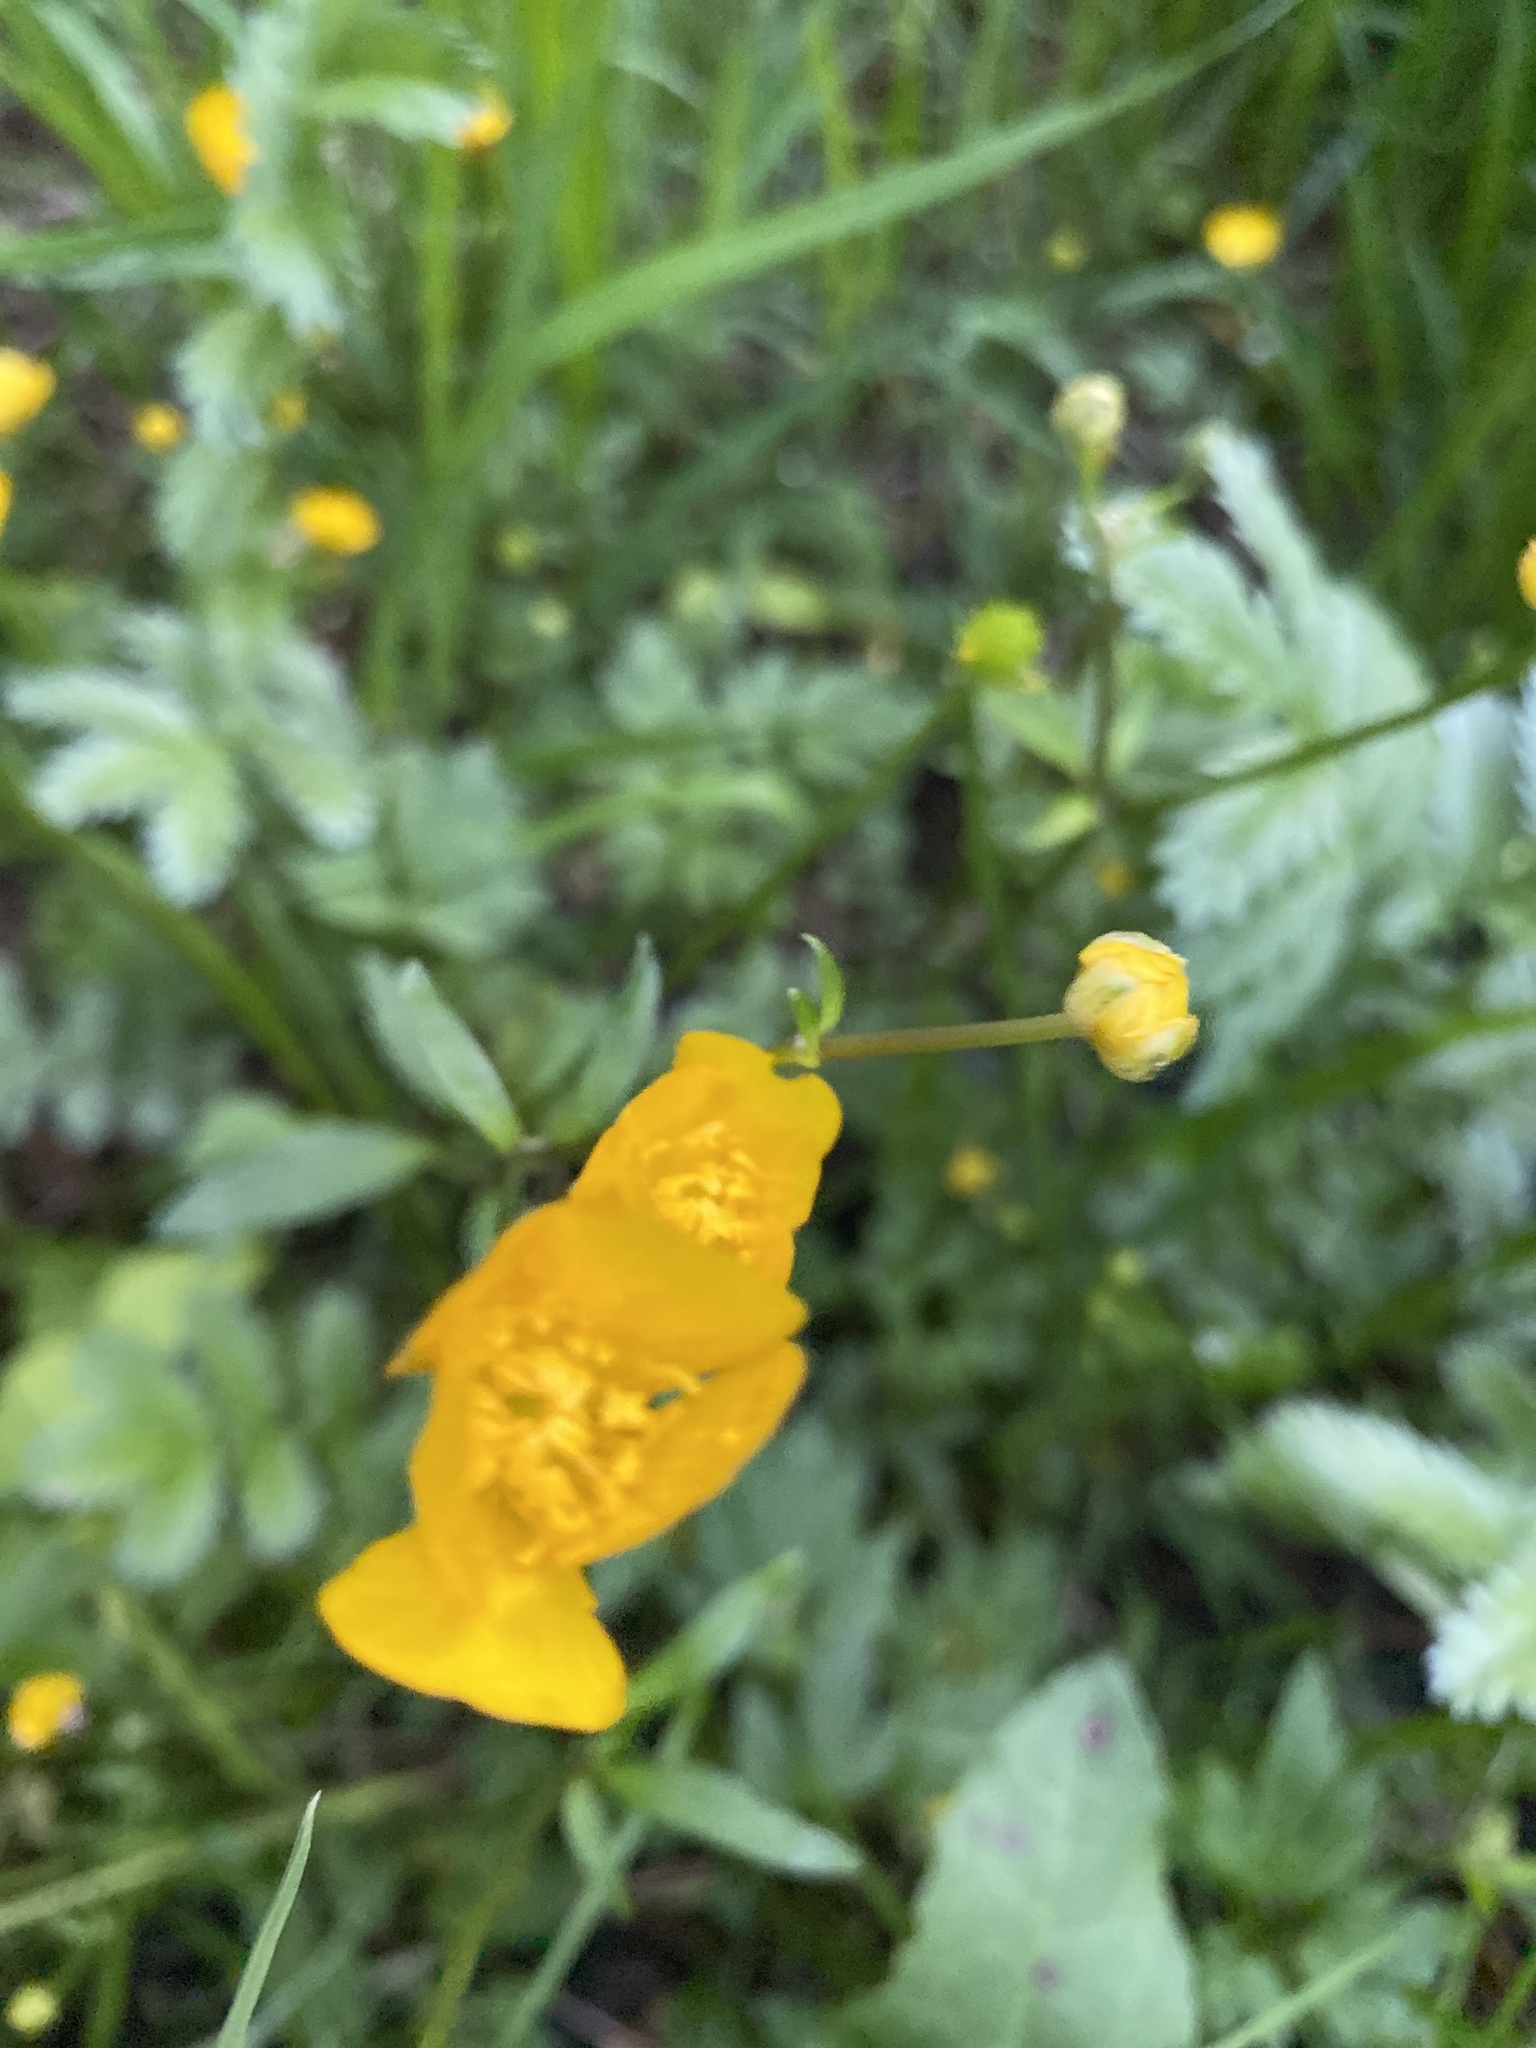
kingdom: Plantae
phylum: Tracheophyta
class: Magnoliopsida
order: Ranunculales
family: Ranunculaceae
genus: Ranunculus
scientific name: Ranunculus repens
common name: Creeping buttercup
